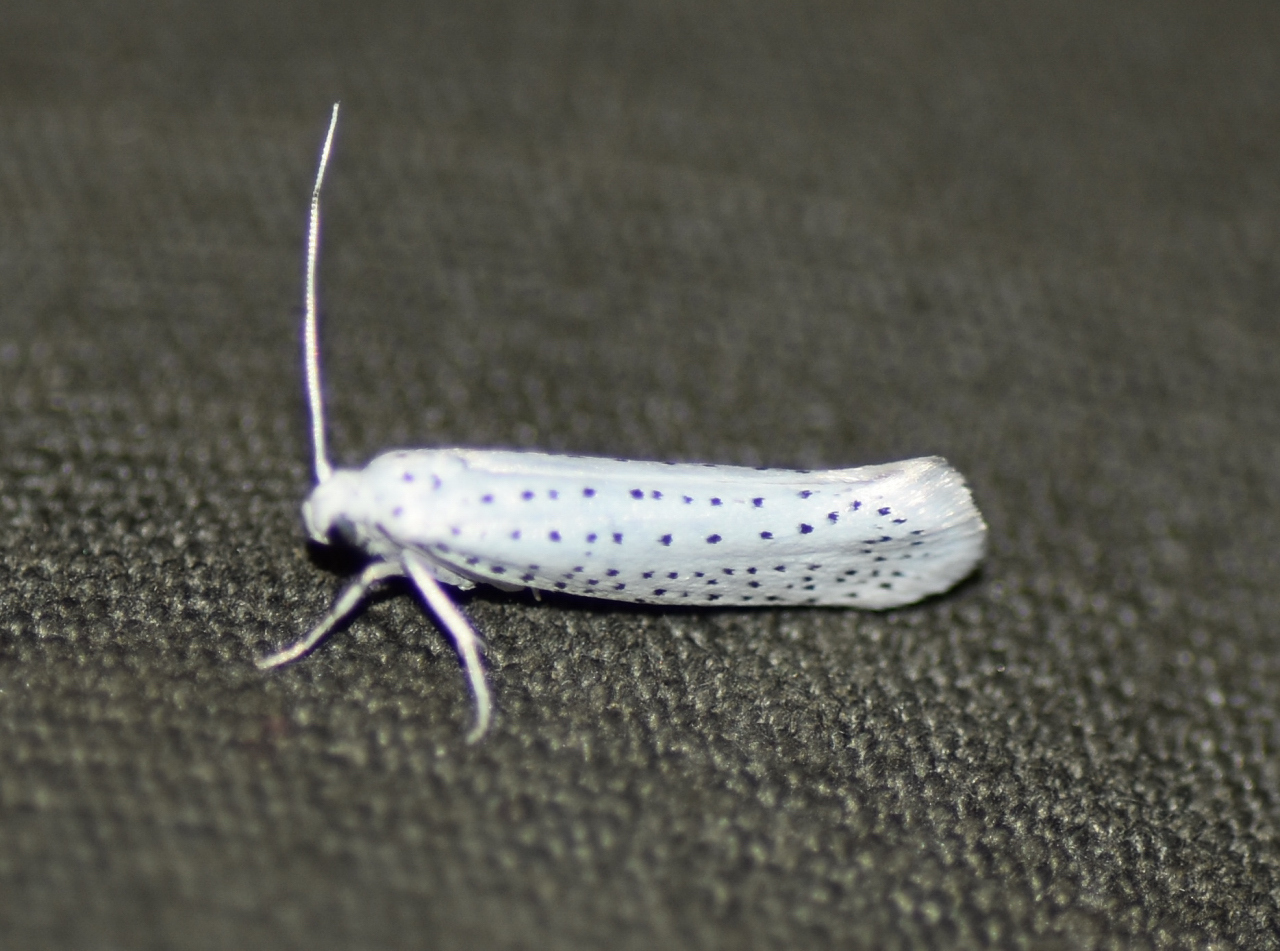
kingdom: Animalia
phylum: Arthropoda
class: Insecta
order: Lepidoptera
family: Yponomeutidae
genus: Yponomeuta
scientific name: Yponomeuta multipunctella
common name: American ermine moth
